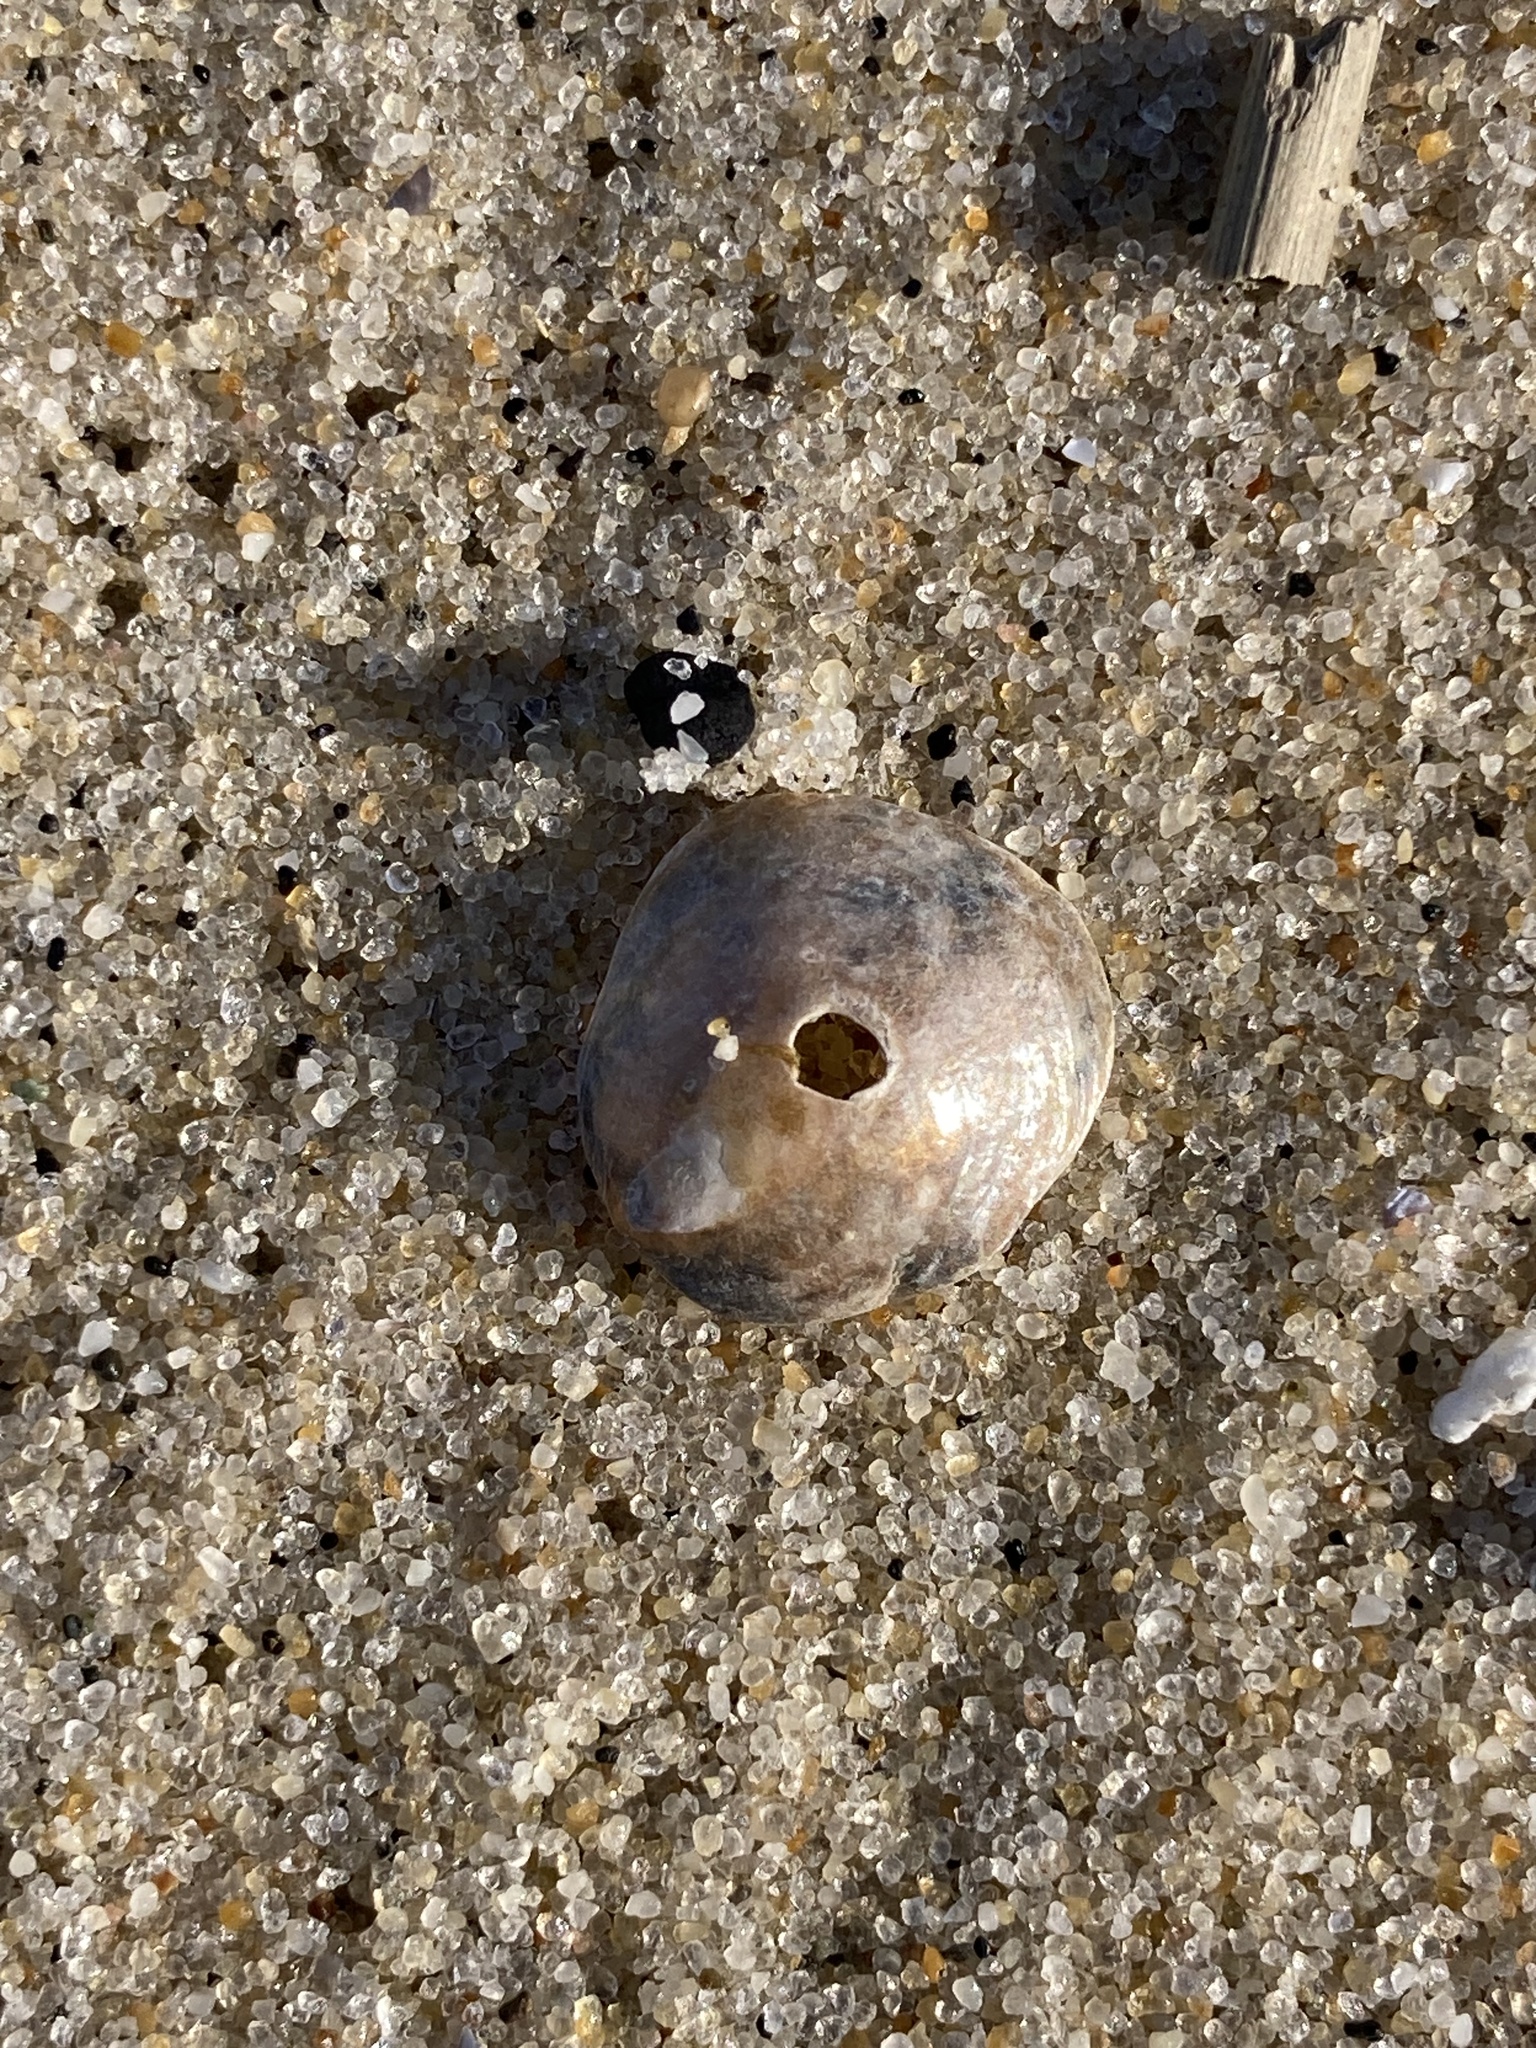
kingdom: Animalia
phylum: Mollusca
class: Bivalvia
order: Pectinida
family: Anomiidae
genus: Anomia
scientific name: Anomia simplex
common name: Common jingle shell
